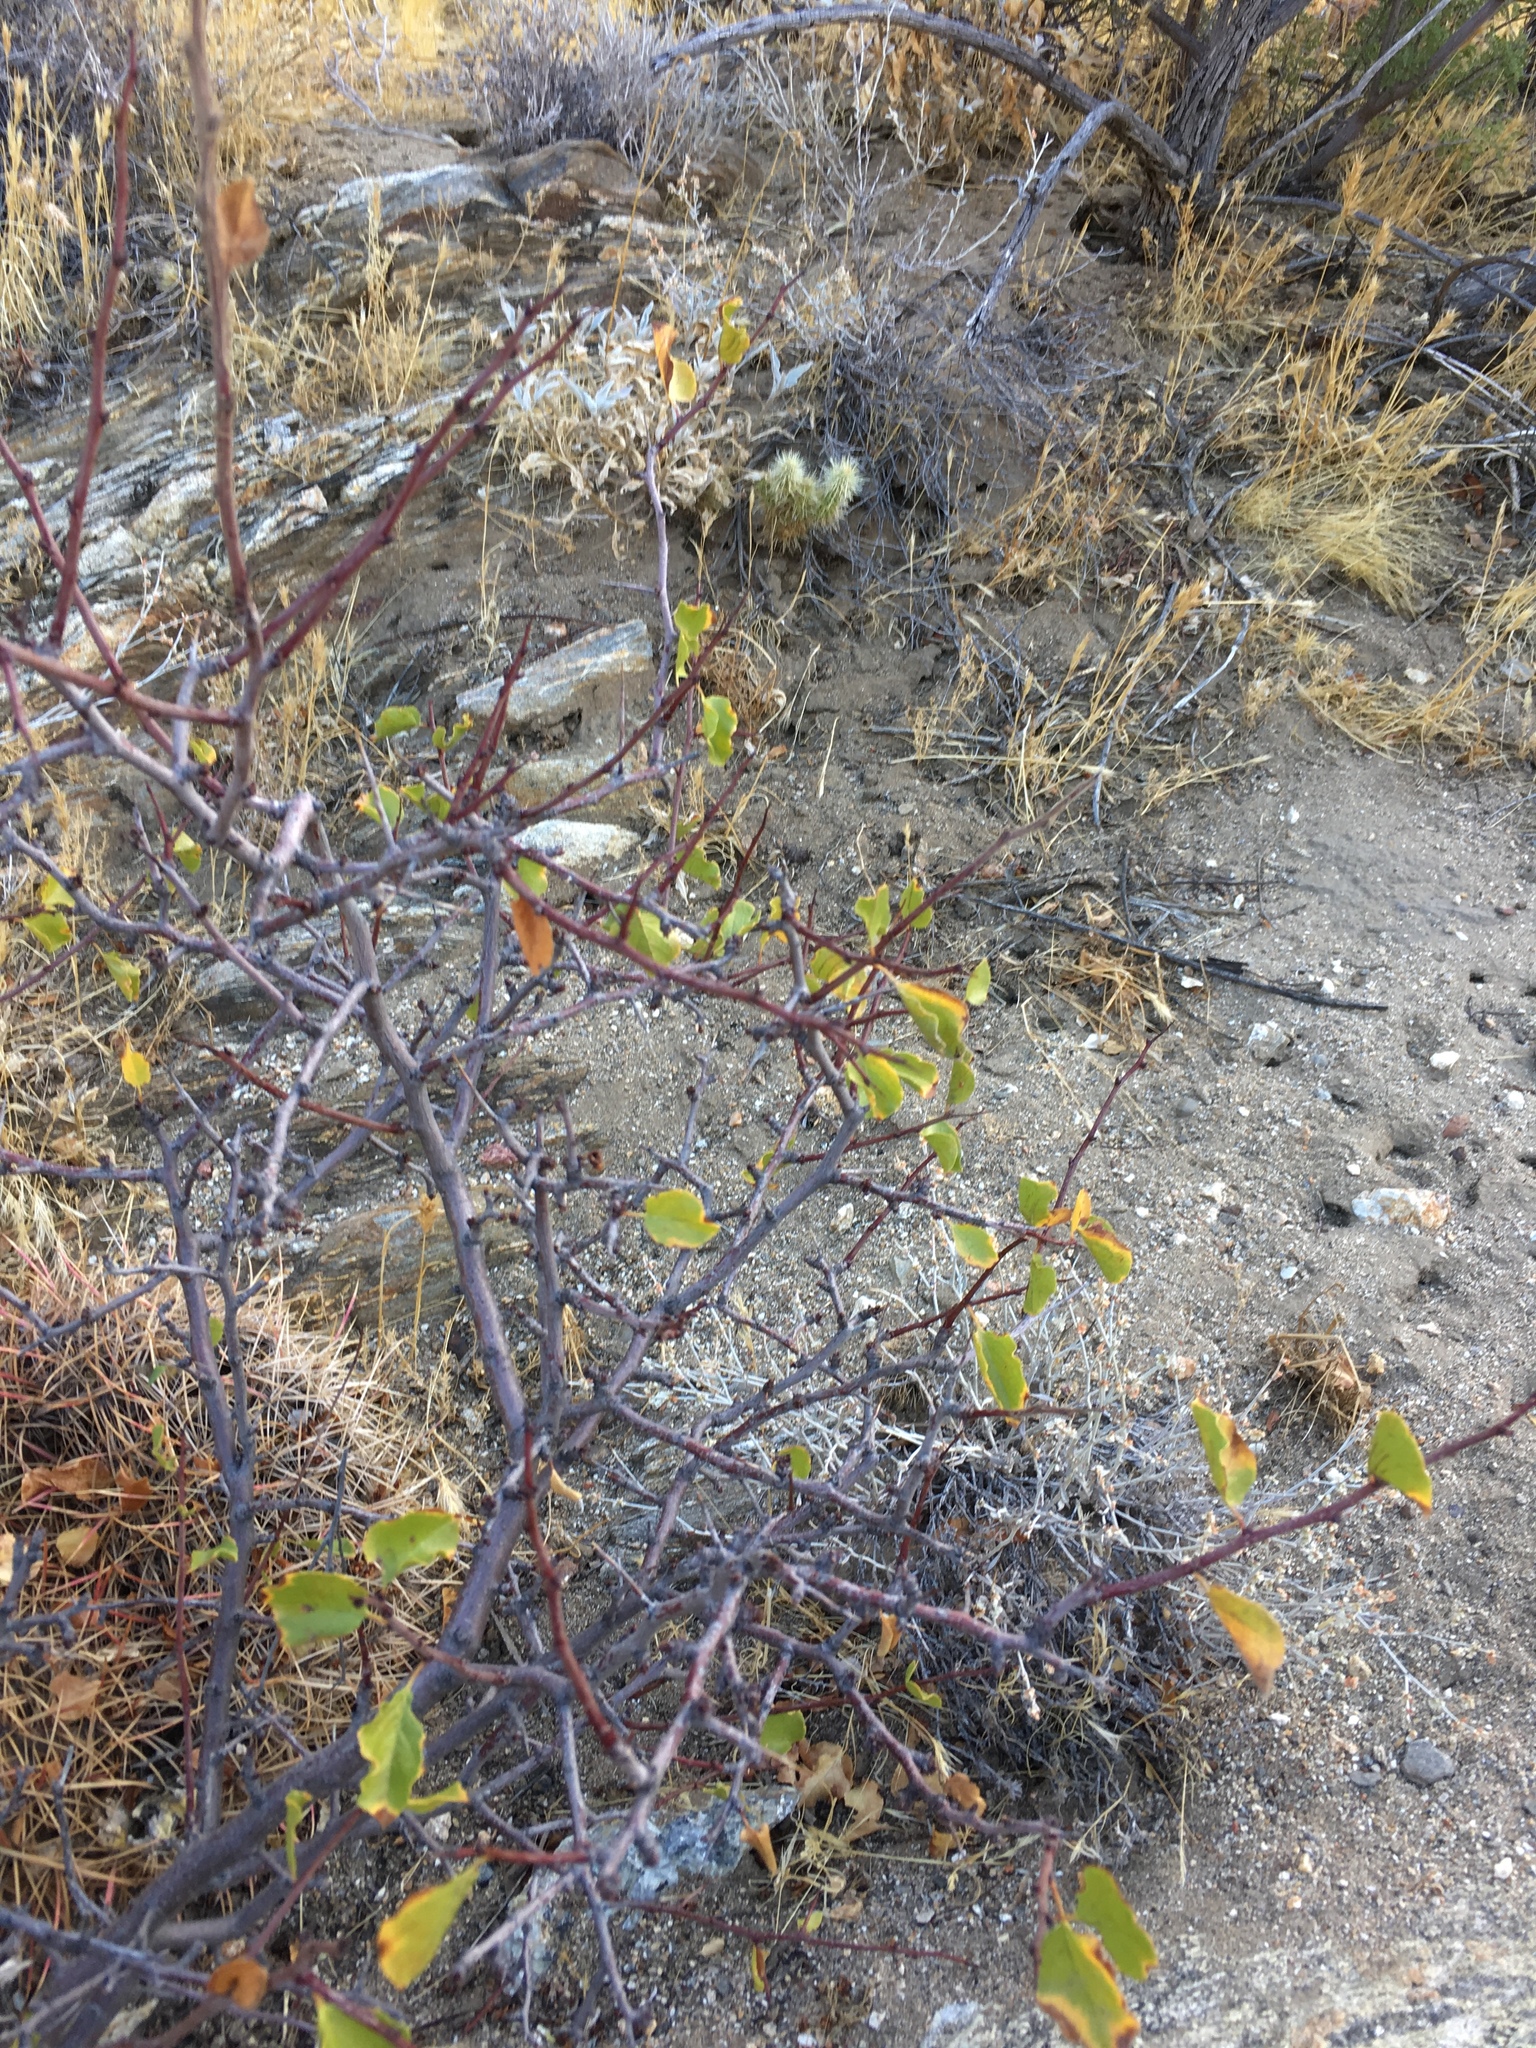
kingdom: Plantae
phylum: Tracheophyta
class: Magnoliopsida
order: Rosales
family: Rosaceae
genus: Prunus
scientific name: Prunus fremontii
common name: Desert apricot
